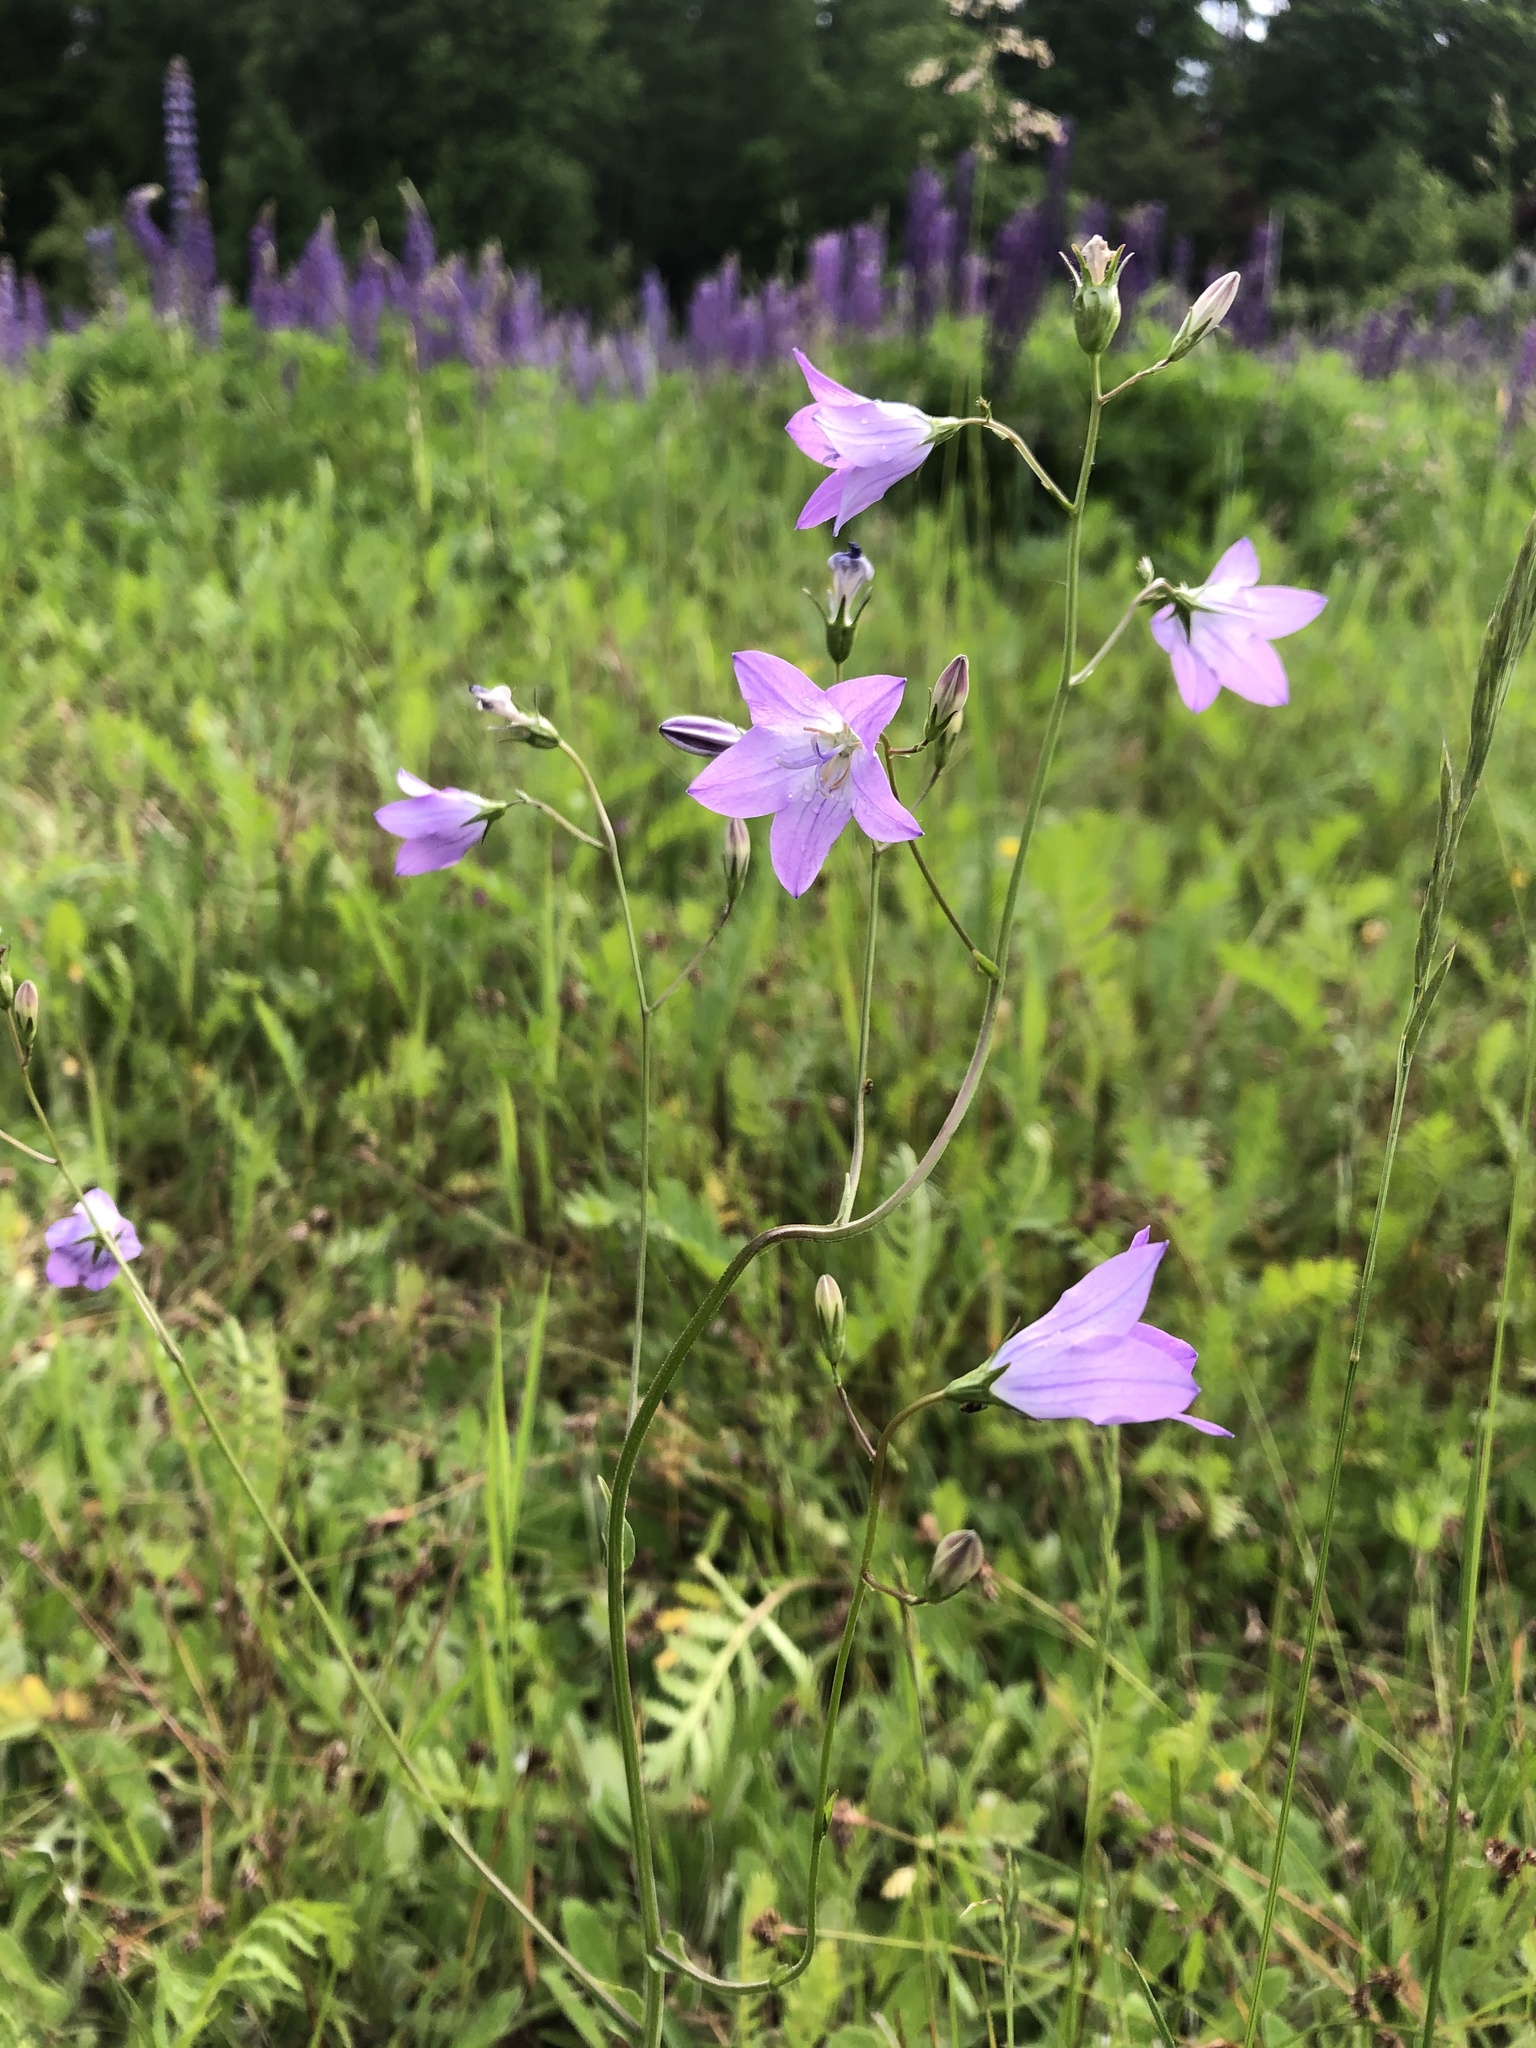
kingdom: Plantae
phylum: Tracheophyta
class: Magnoliopsida
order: Asterales
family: Campanulaceae
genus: Campanula
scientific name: Campanula patula
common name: Spreading bellflower
